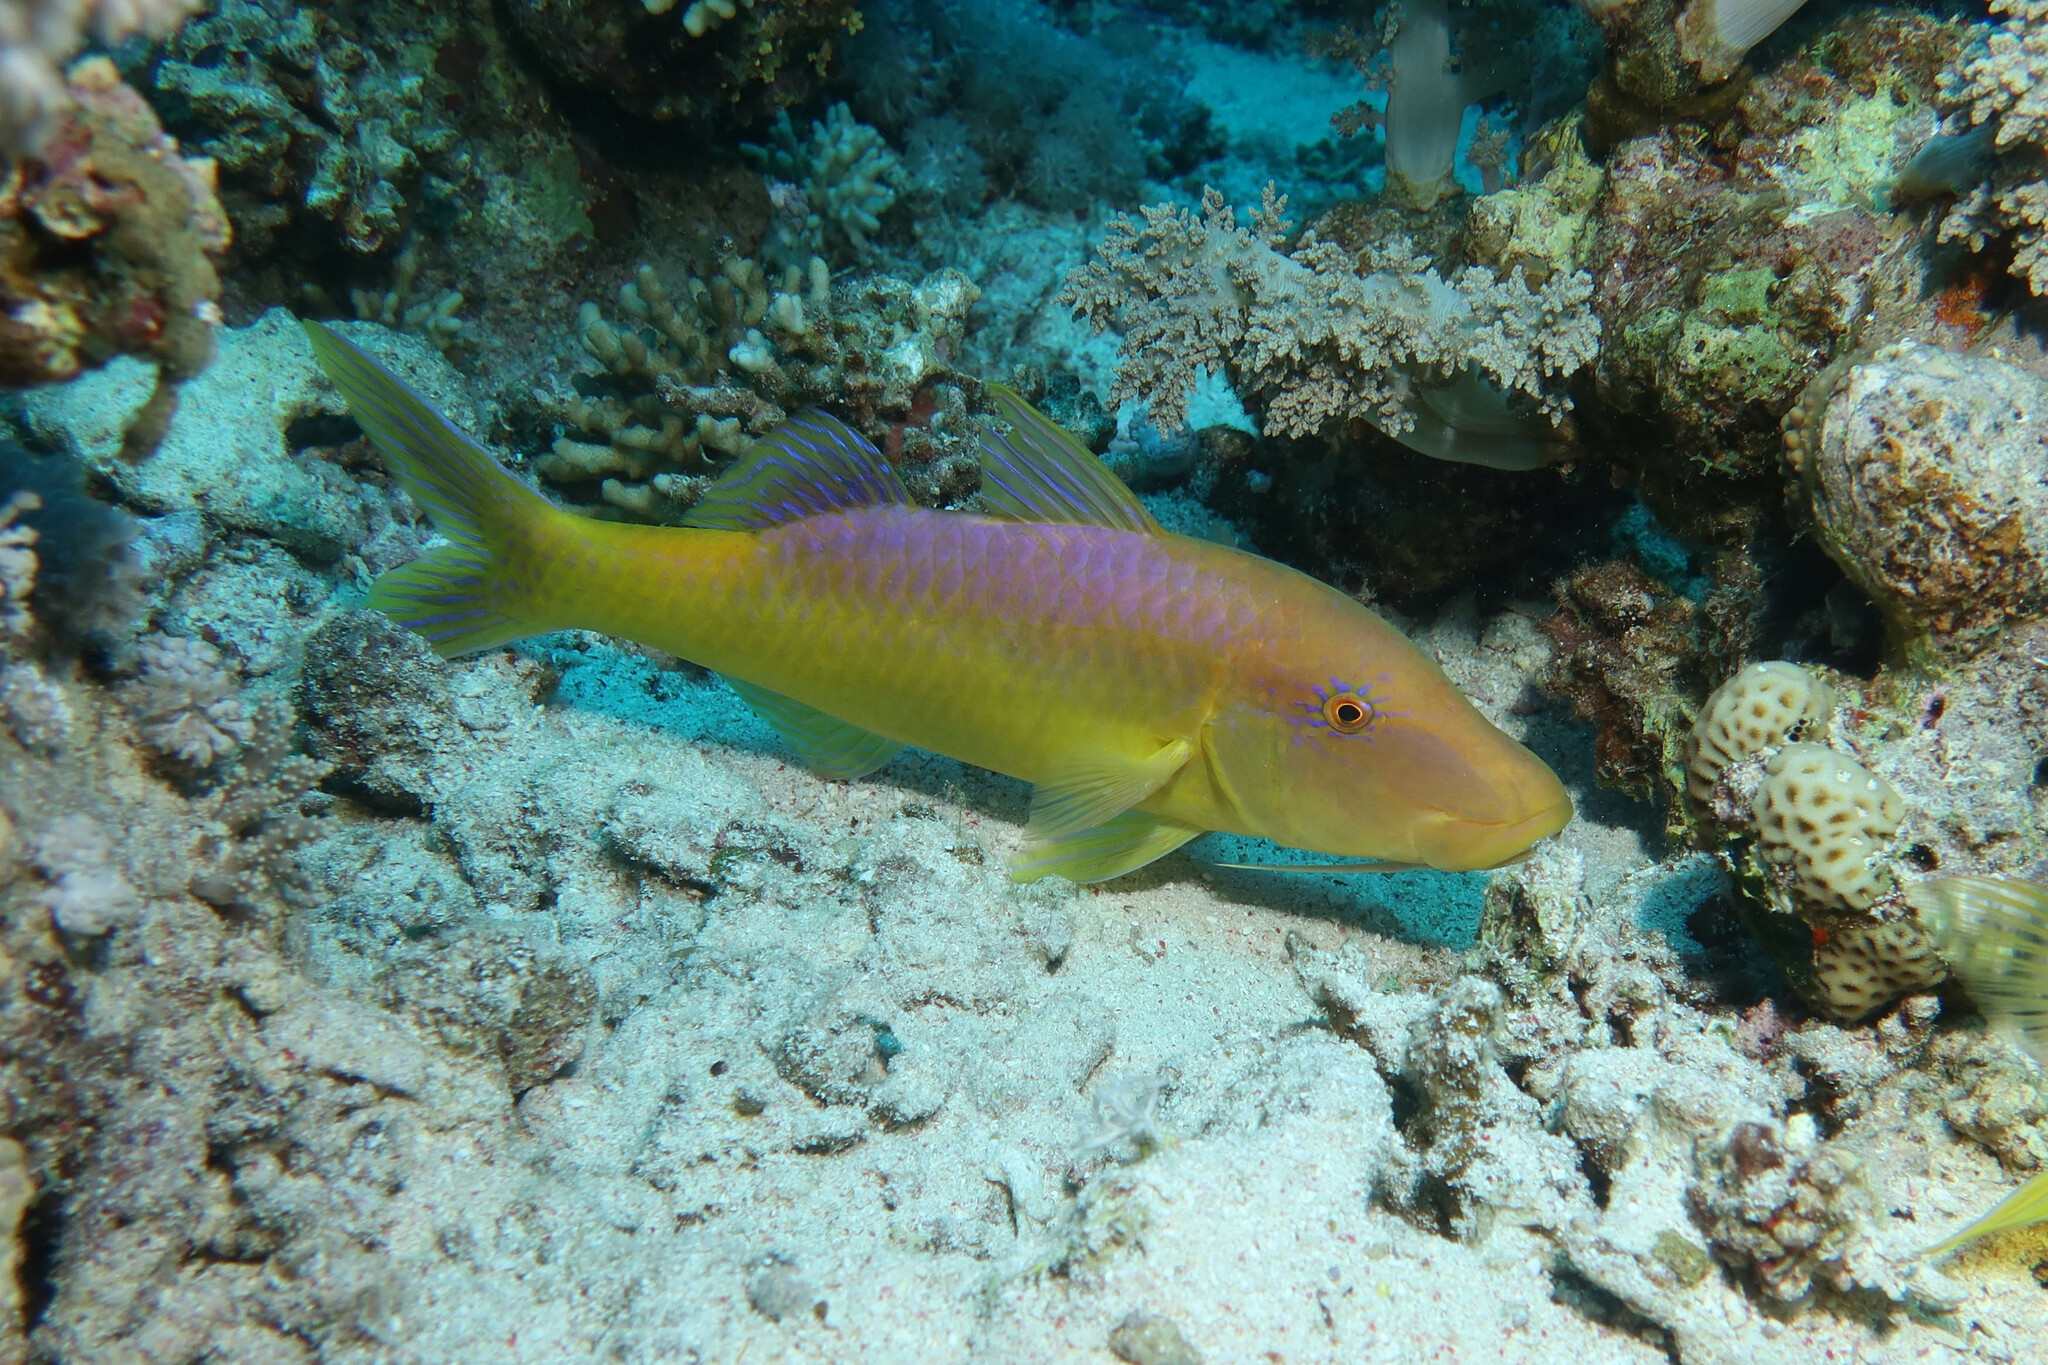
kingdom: Animalia
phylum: Chordata
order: Perciformes
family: Mullidae
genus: Parupeneus
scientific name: Parupeneus cyclostomus
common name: Goldsaddle goatfish
